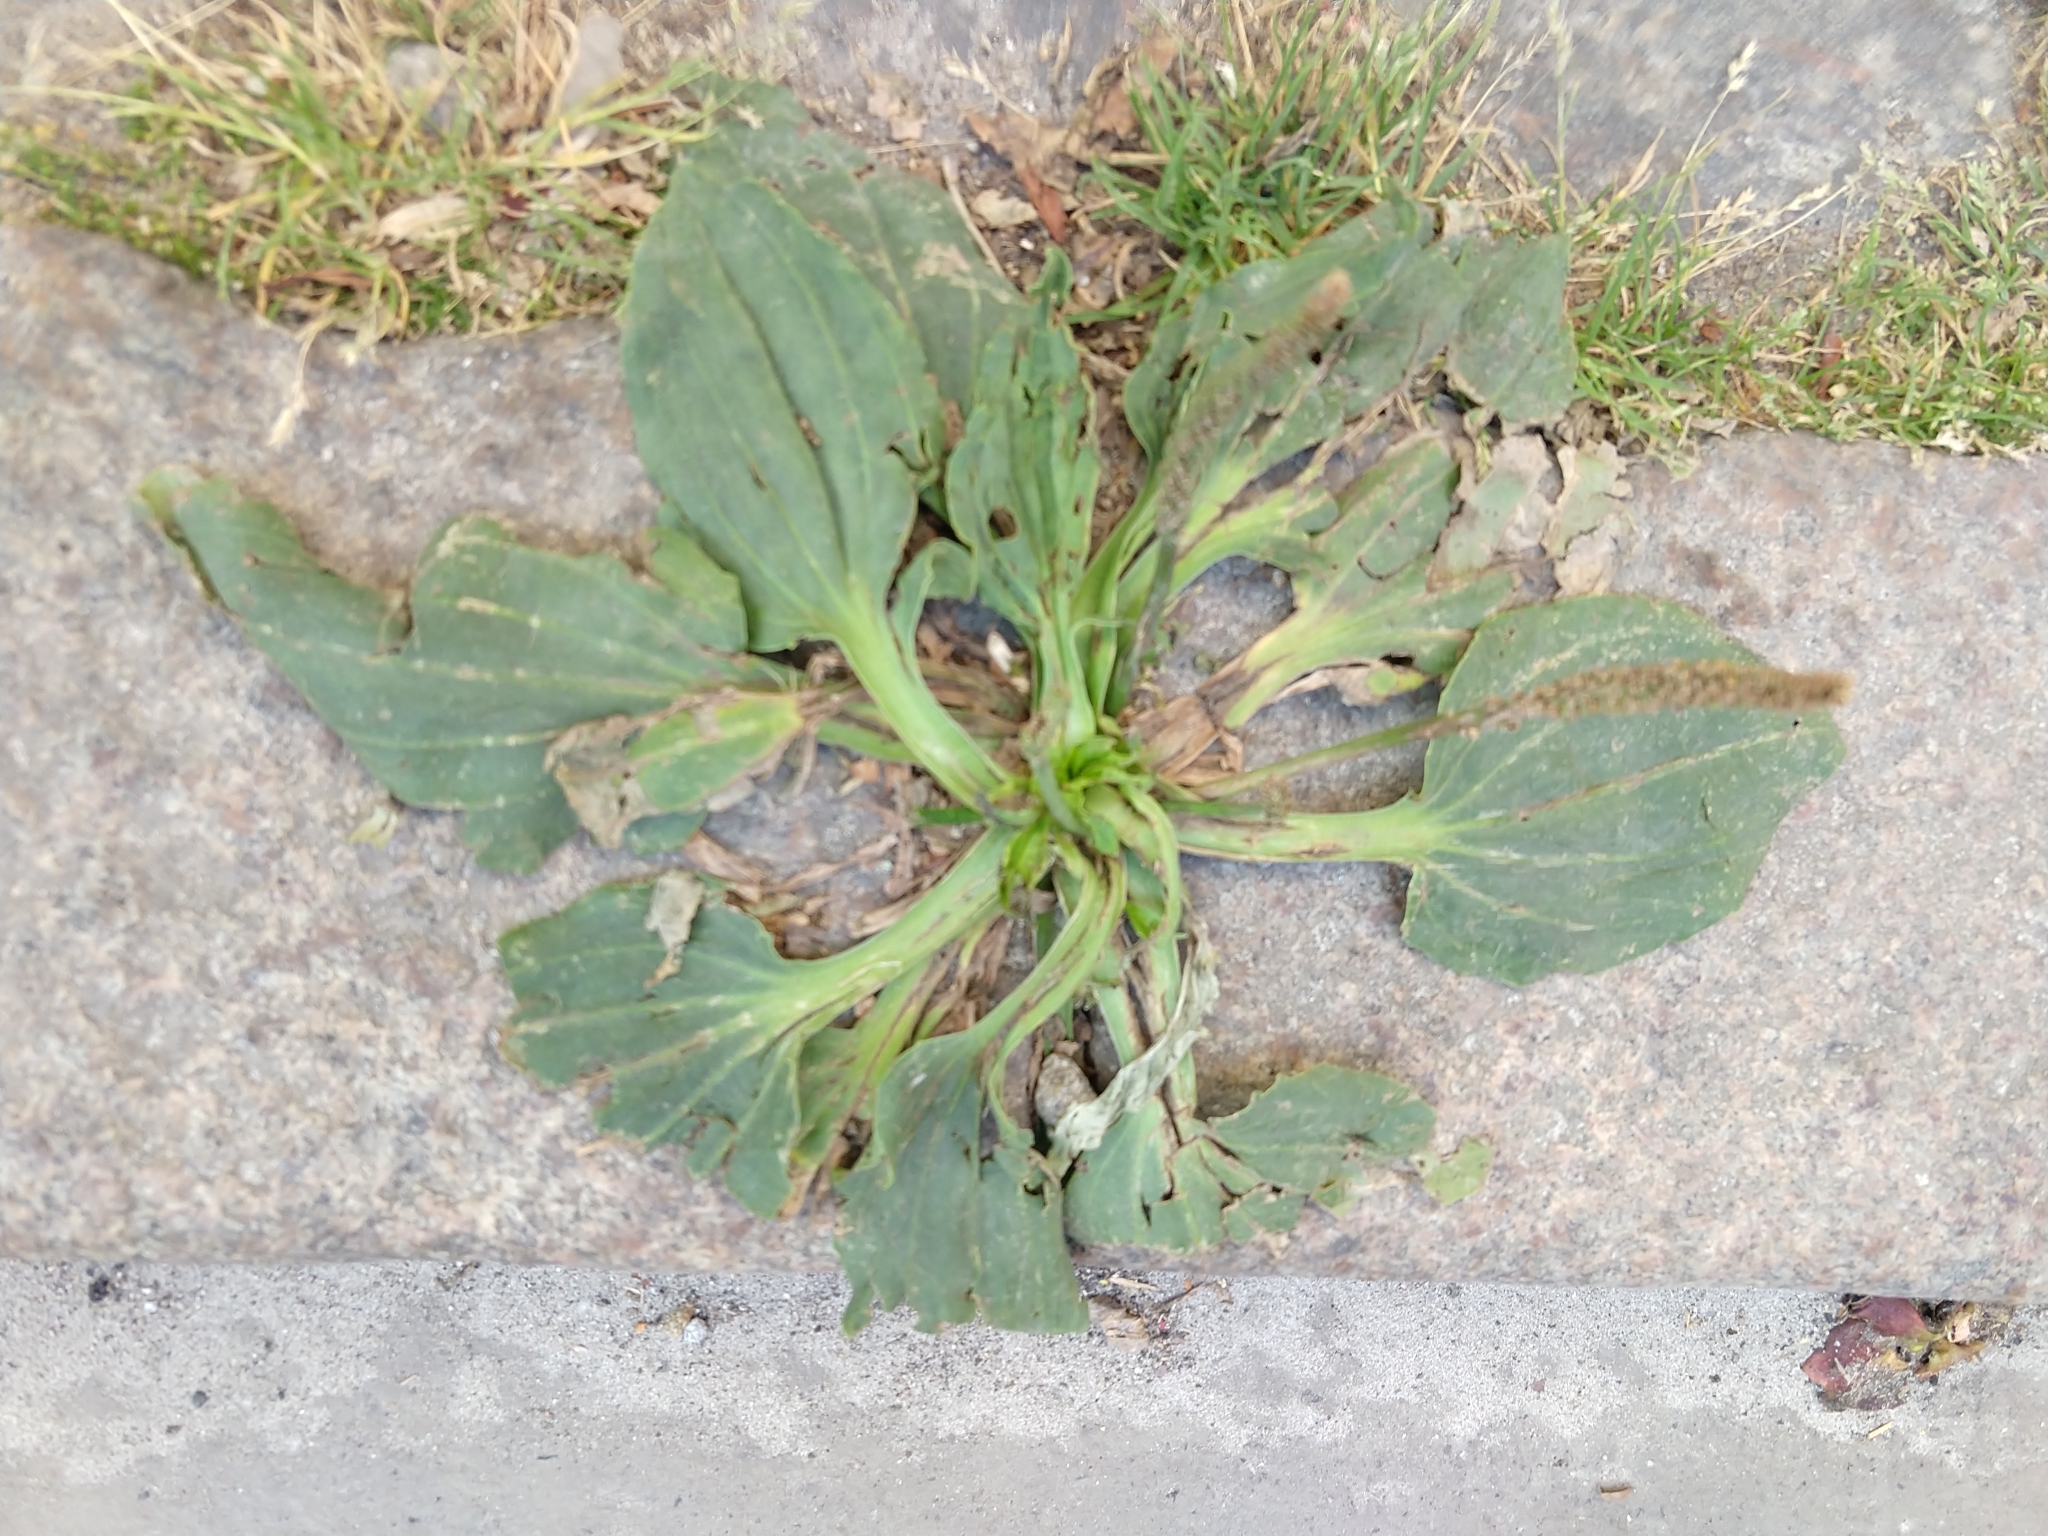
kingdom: Plantae
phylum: Tracheophyta
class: Magnoliopsida
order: Lamiales
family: Plantaginaceae
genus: Plantago
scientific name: Plantago major
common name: Common plantain
